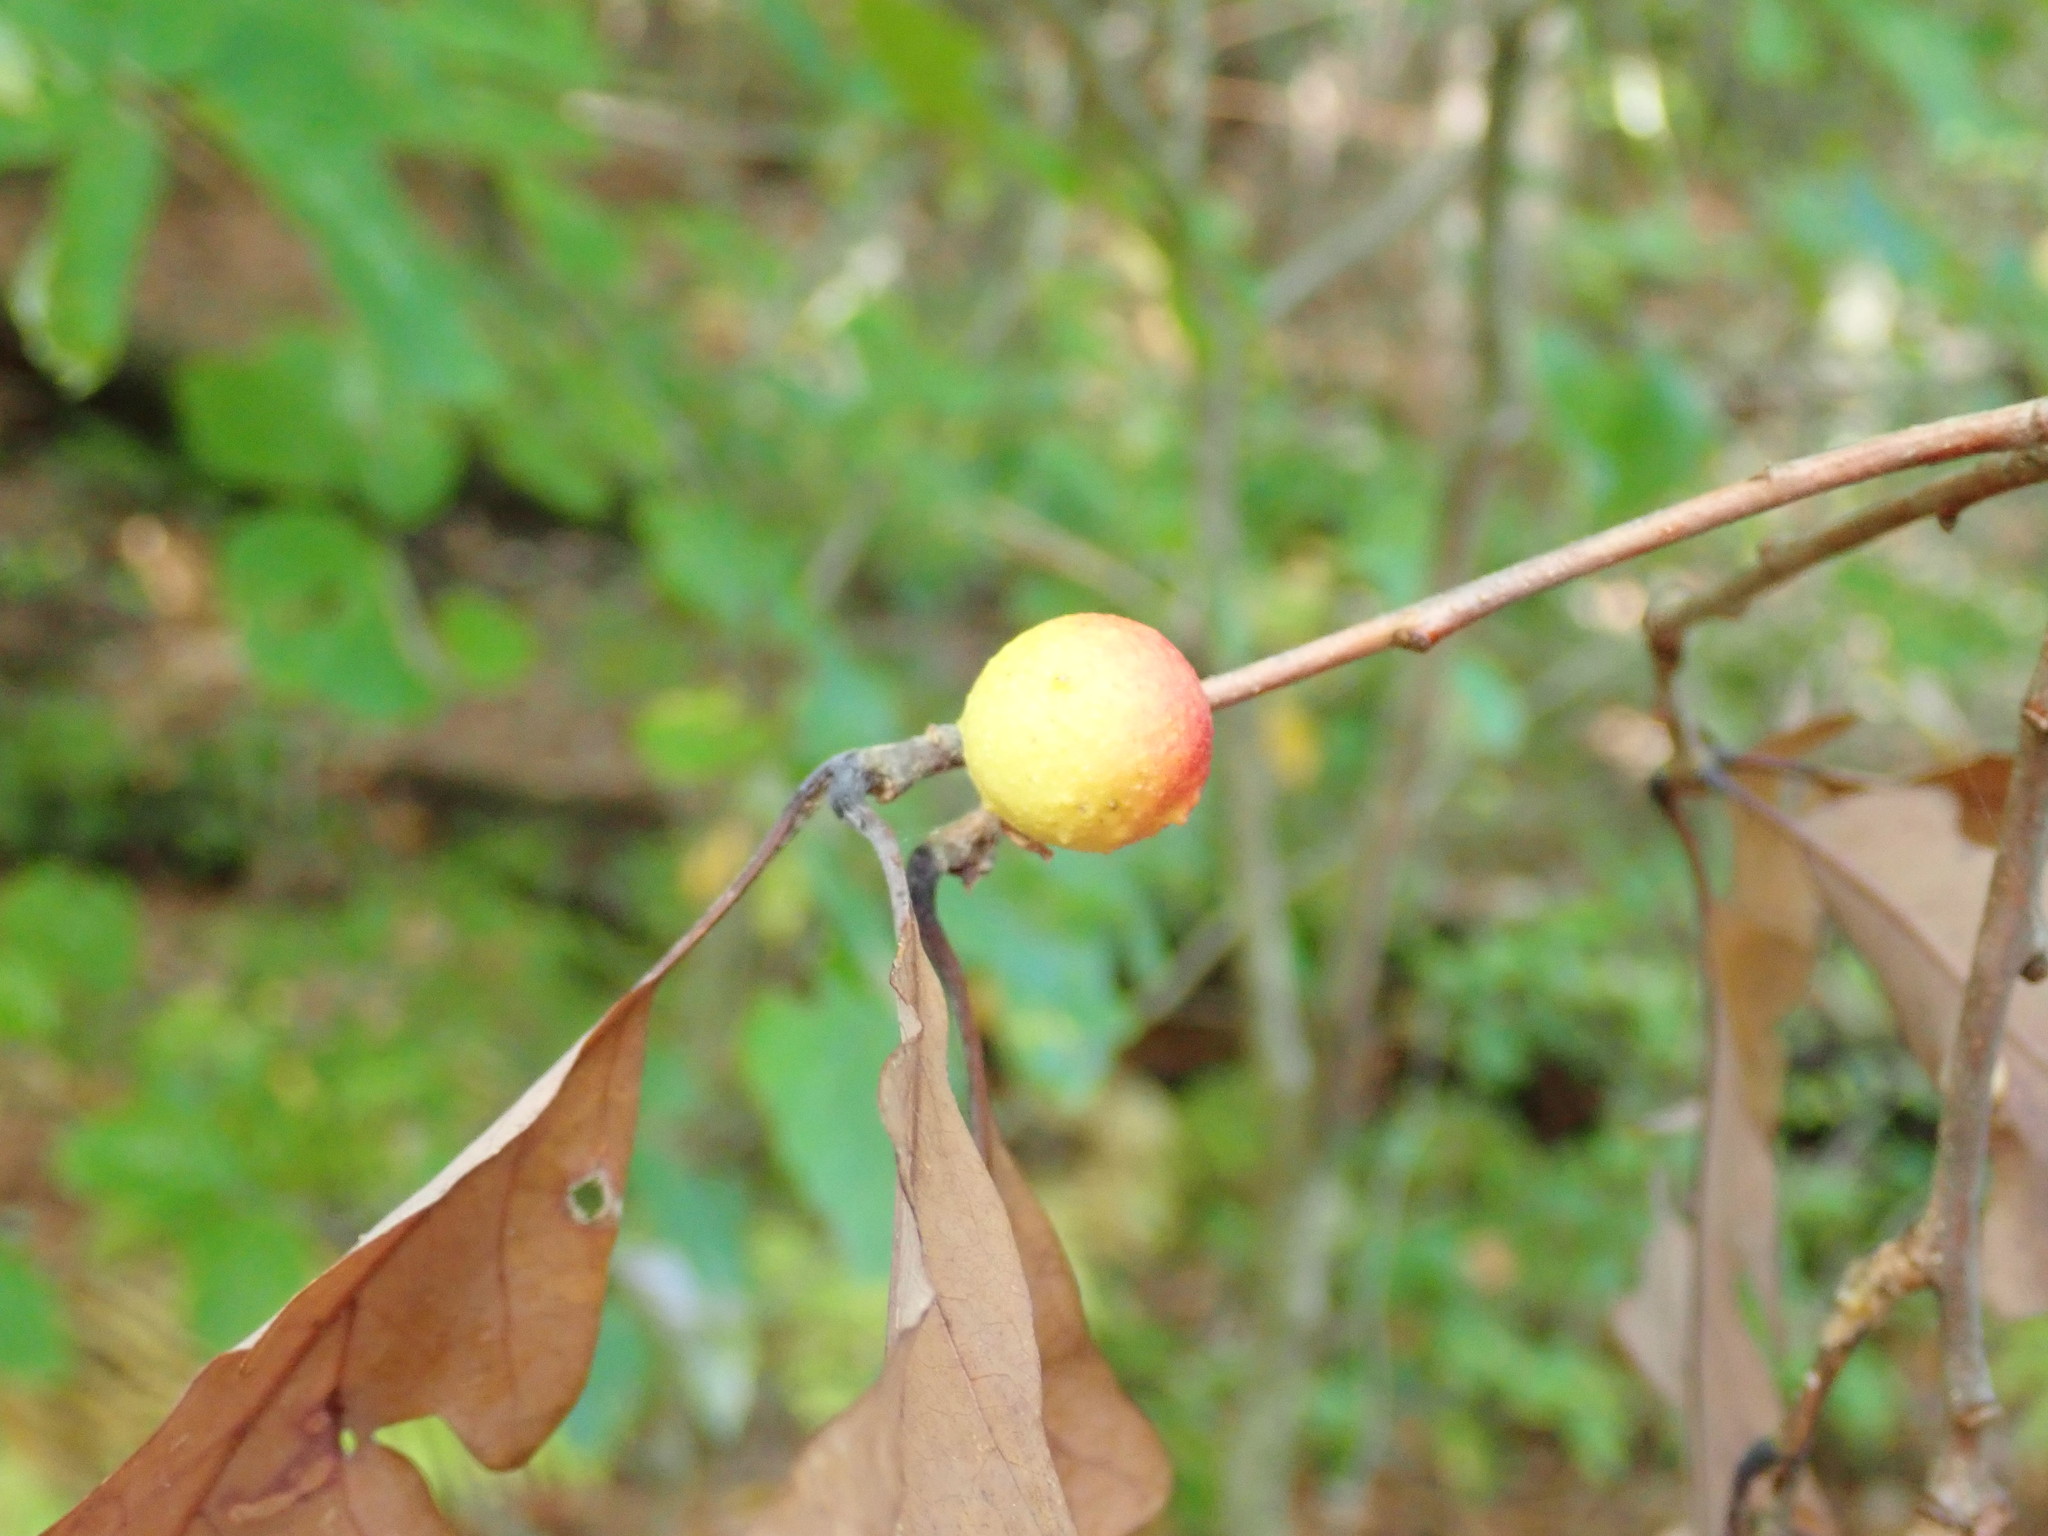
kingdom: Animalia
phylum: Arthropoda
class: Insecta
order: Hymenoptera
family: Cynipidae
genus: Disholcaspis
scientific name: Disholcaspis quercusglobulus
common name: Round bullet gall wasp
